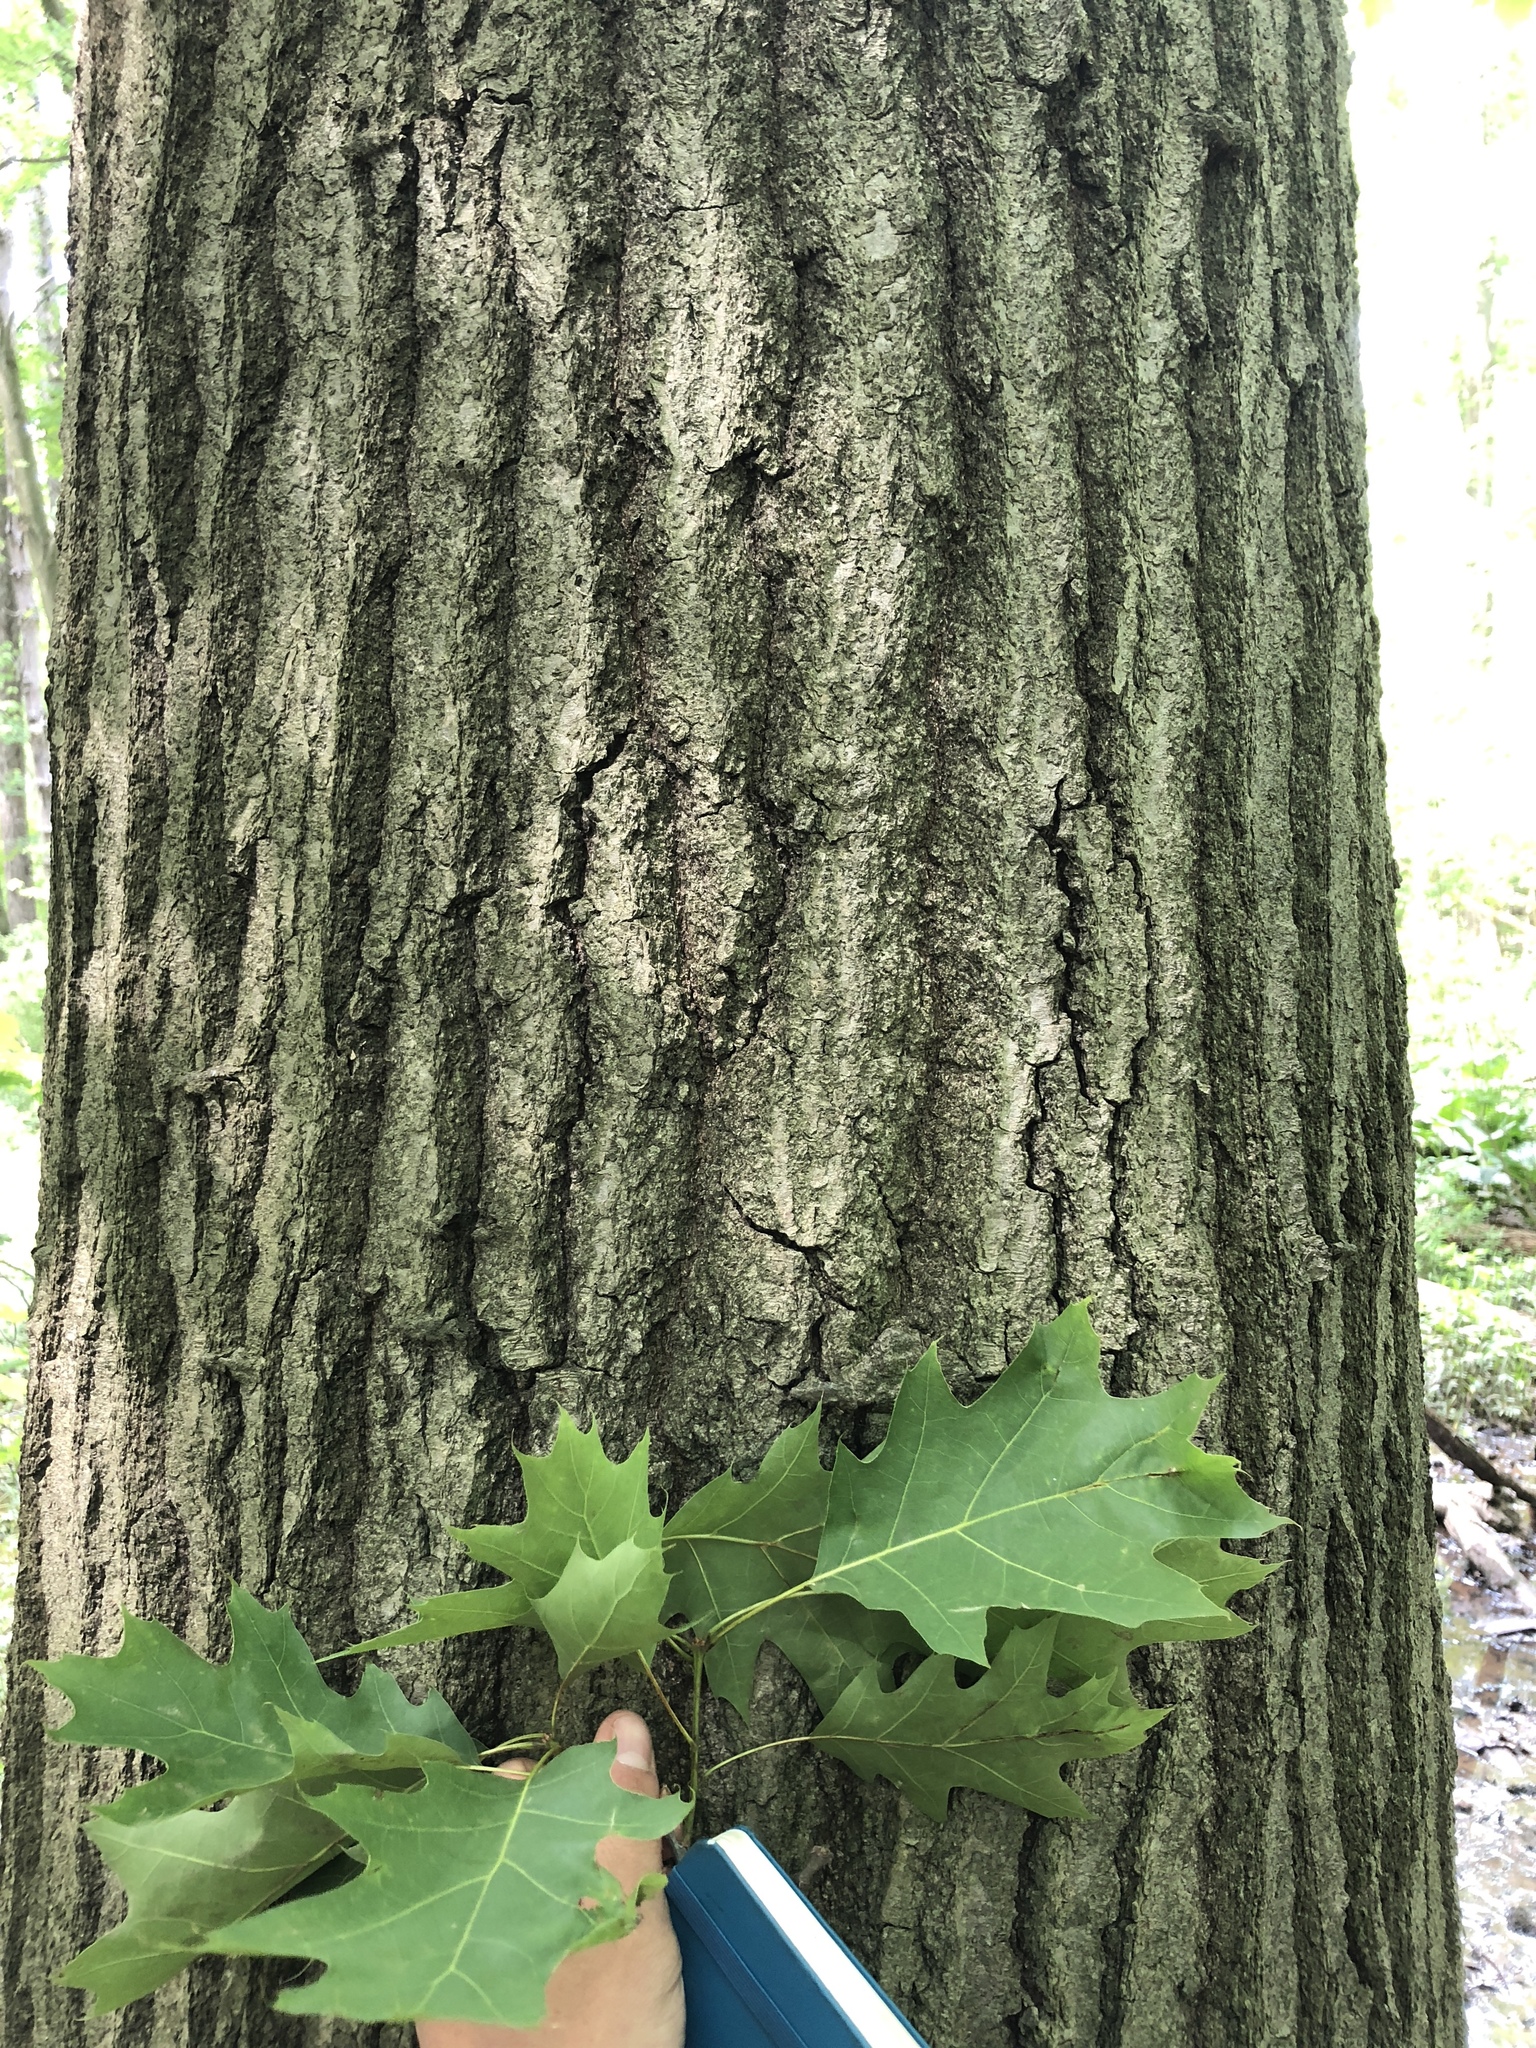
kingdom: Plantae
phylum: Tracheophyta
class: Magnoliopsida
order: Fagales
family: Fagaceae
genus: Quercus
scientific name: Quercus rubra
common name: Red oak
